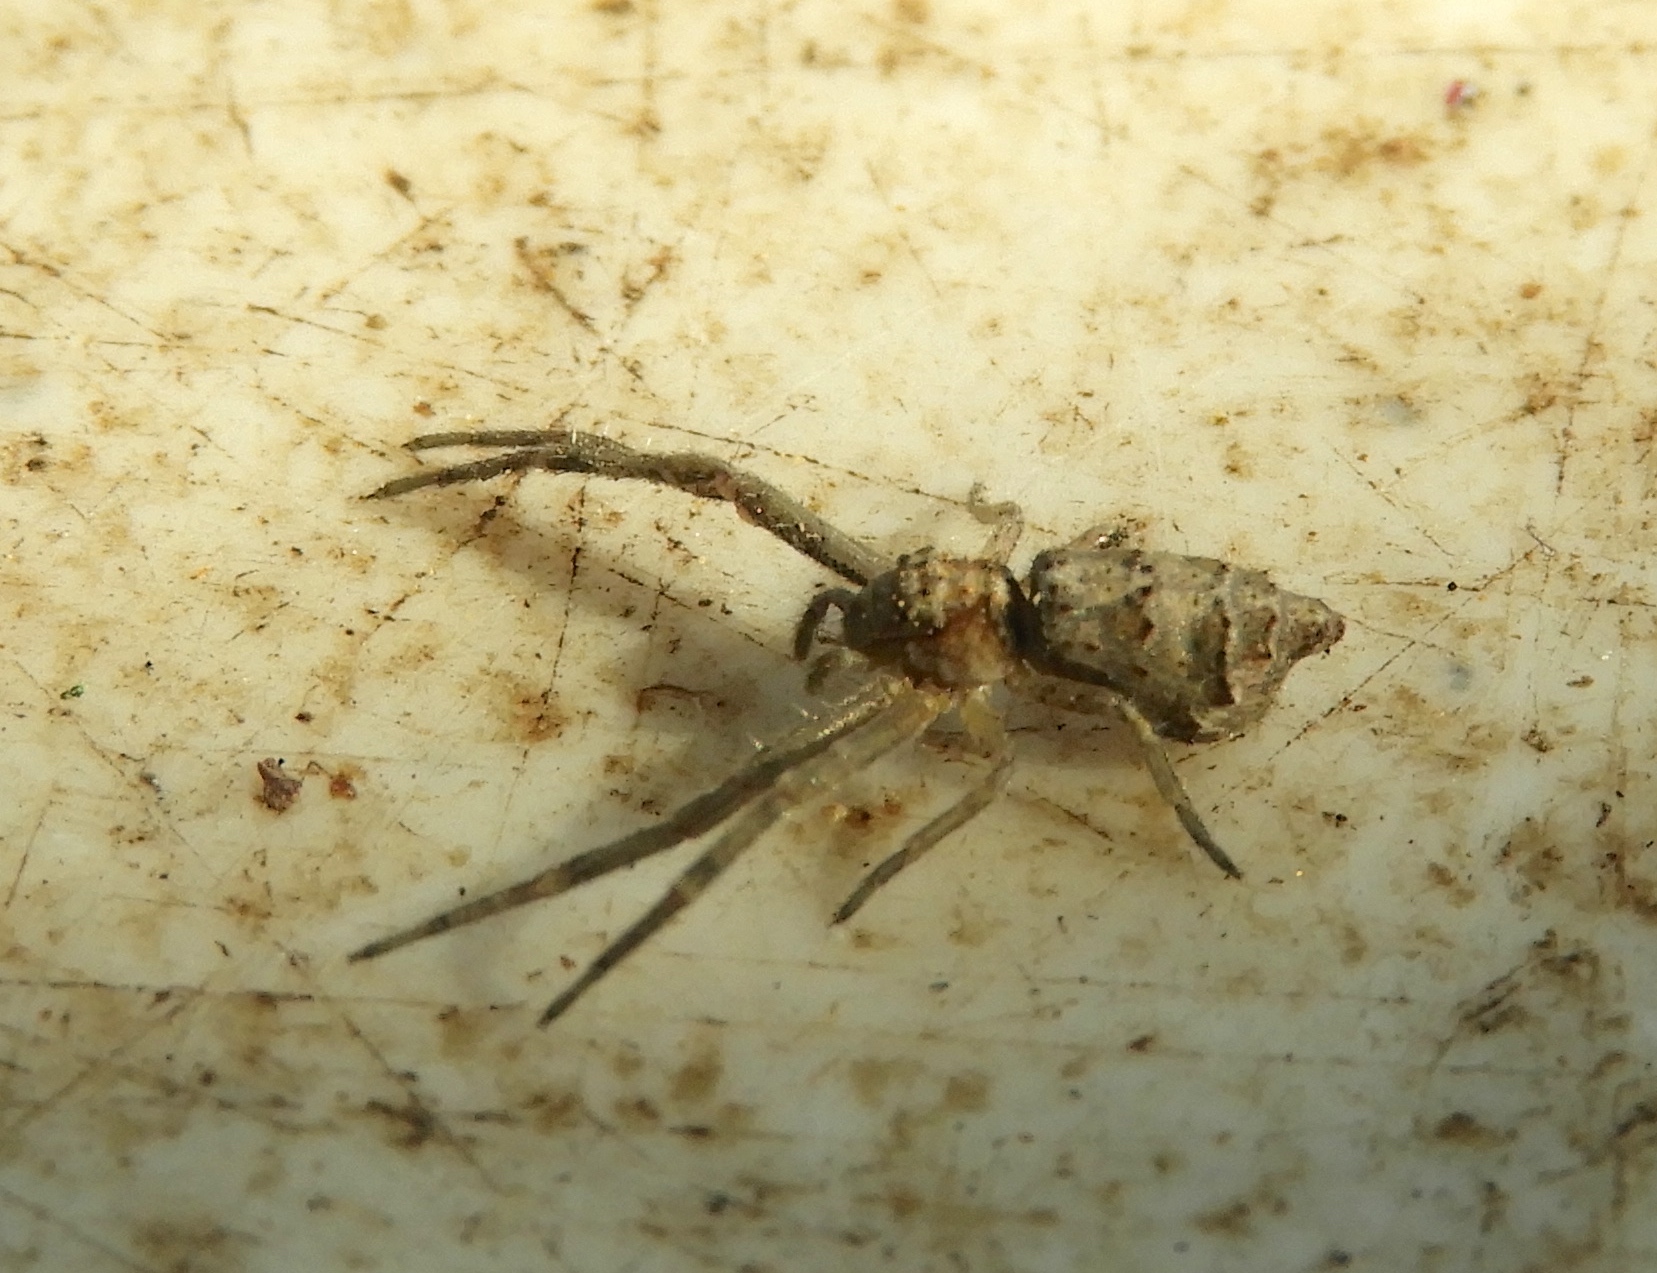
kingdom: Animalia
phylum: Arthropoda
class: Arachnida
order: Araneae
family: Thomisidae
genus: Tmarus
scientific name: Tmarus
